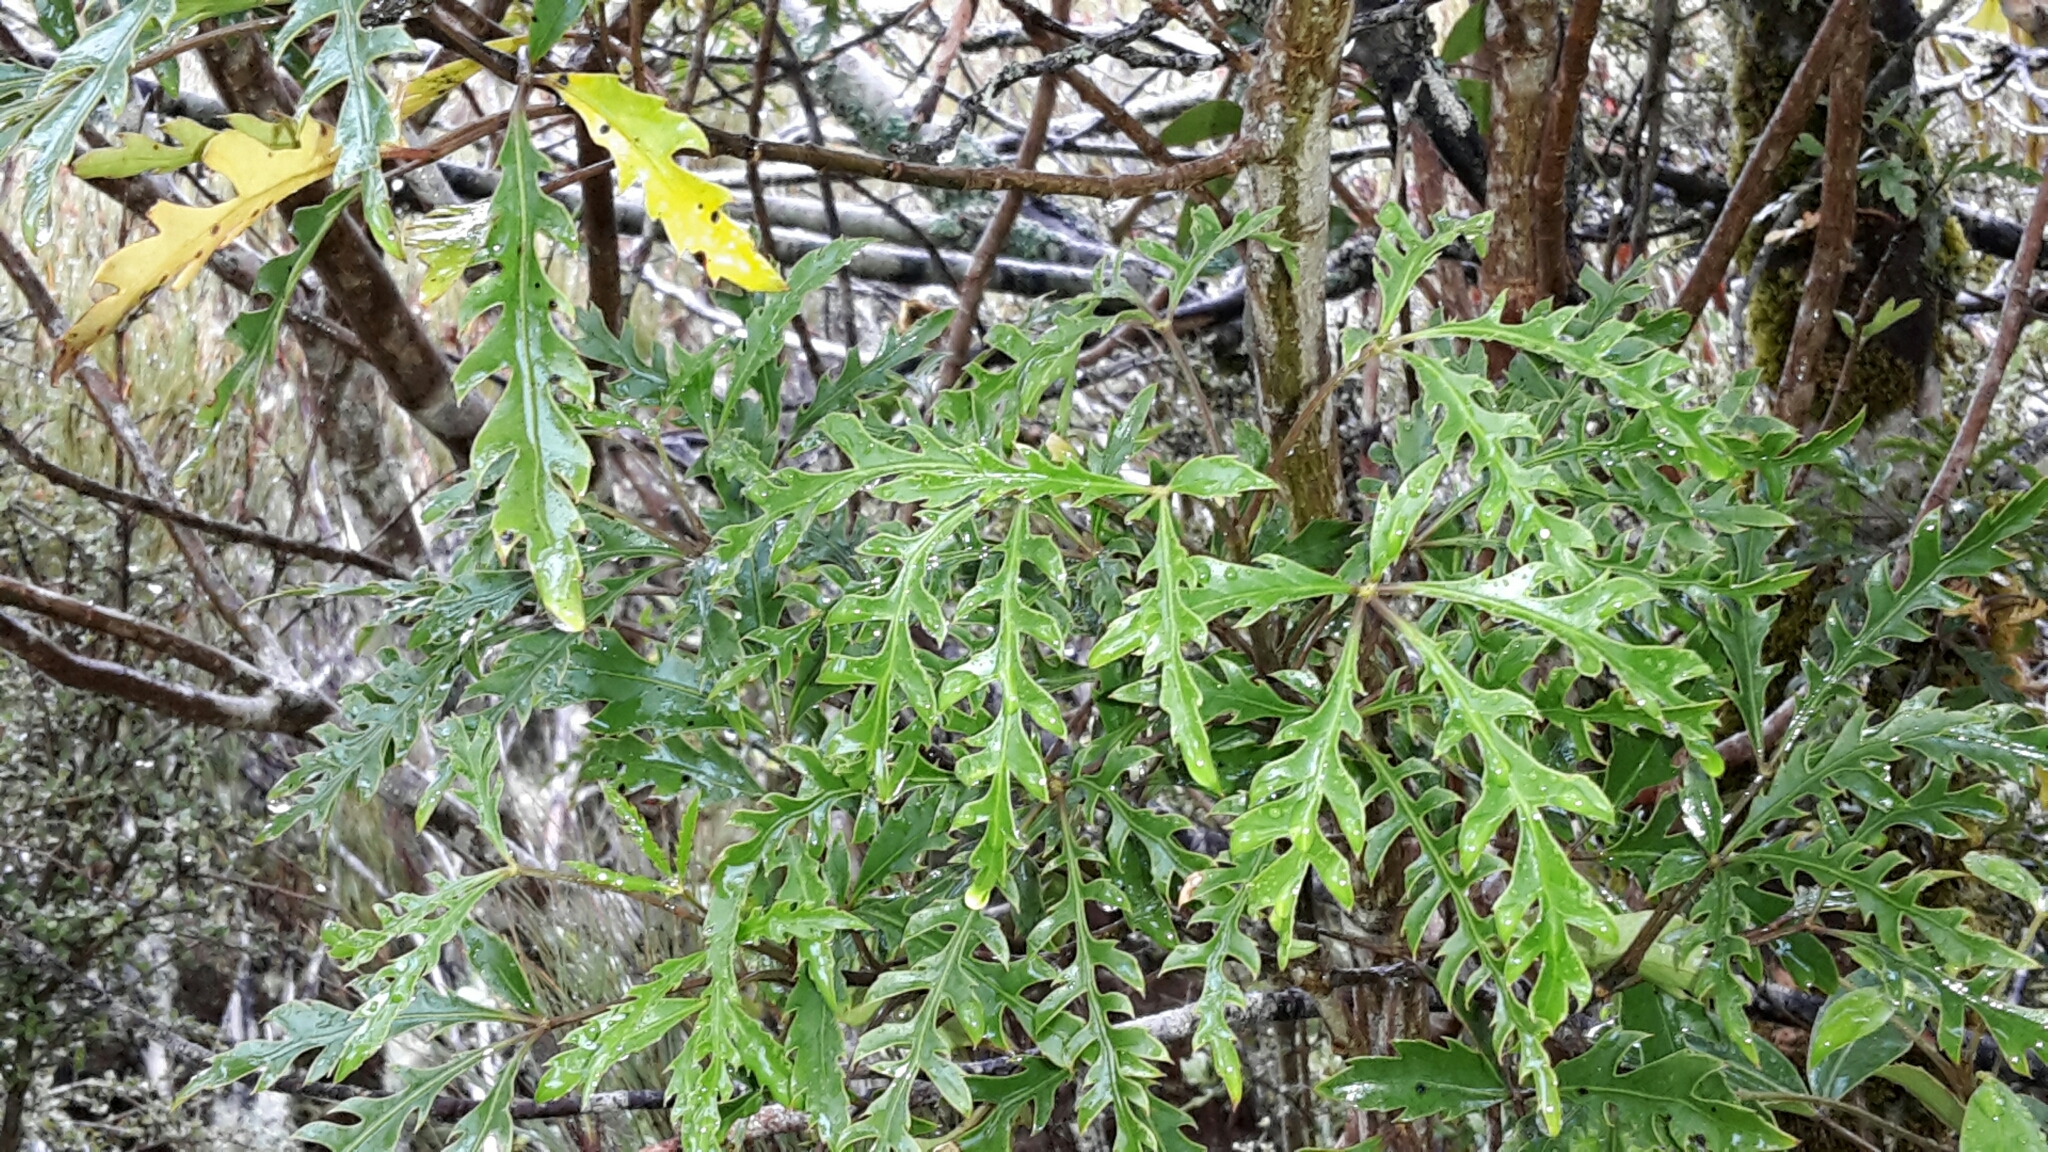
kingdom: Plantae
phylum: Tracheophyta
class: Magnoliopsida
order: Apiales
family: Araliaceae
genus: Raukaua
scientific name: Raukaua simplex
